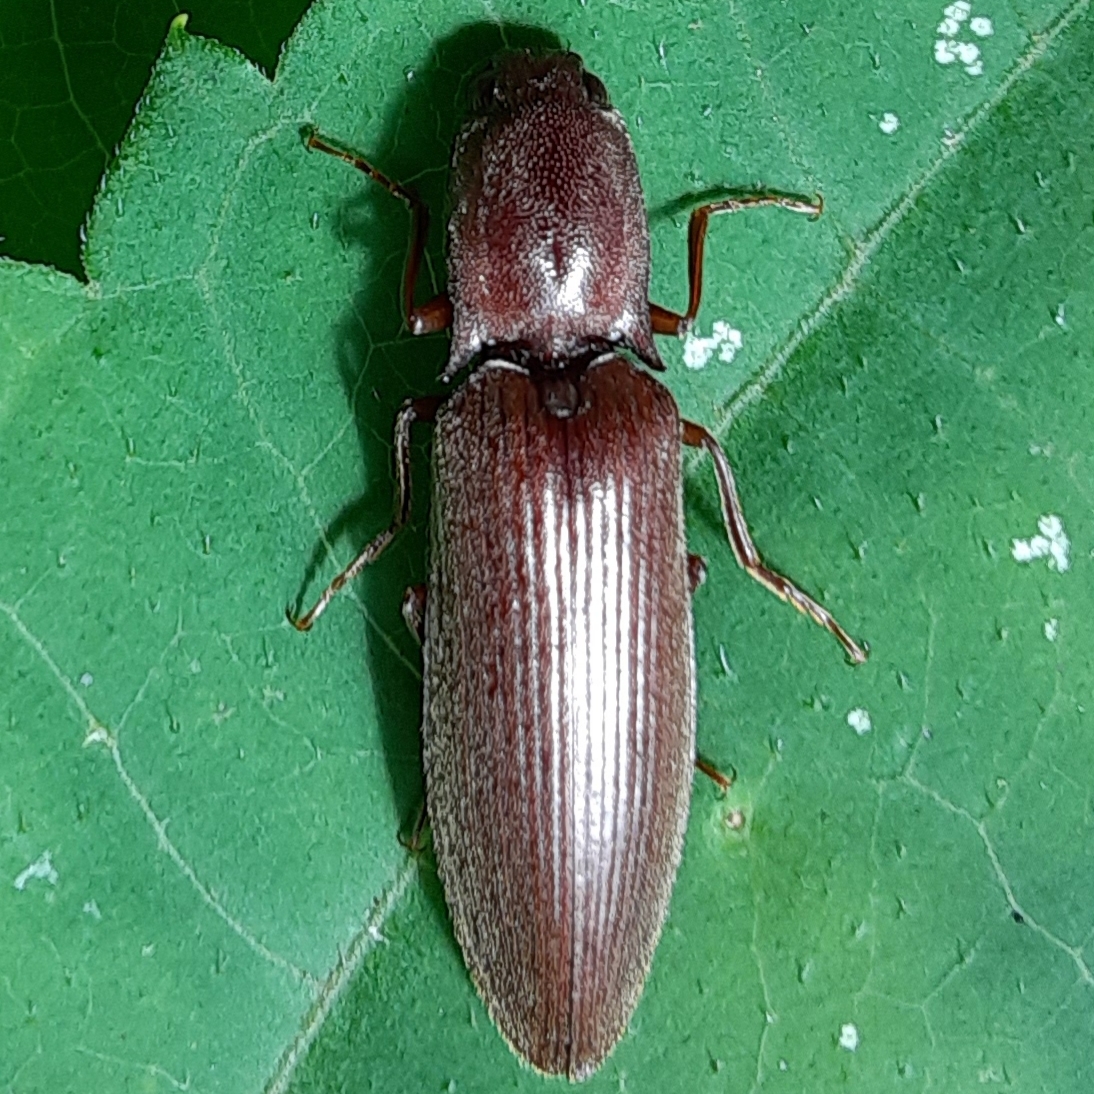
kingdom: Animalia
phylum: Arthropoda
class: Insecta
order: Coleoptera
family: Elateridae
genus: Proludius
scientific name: Proludius pyrros
